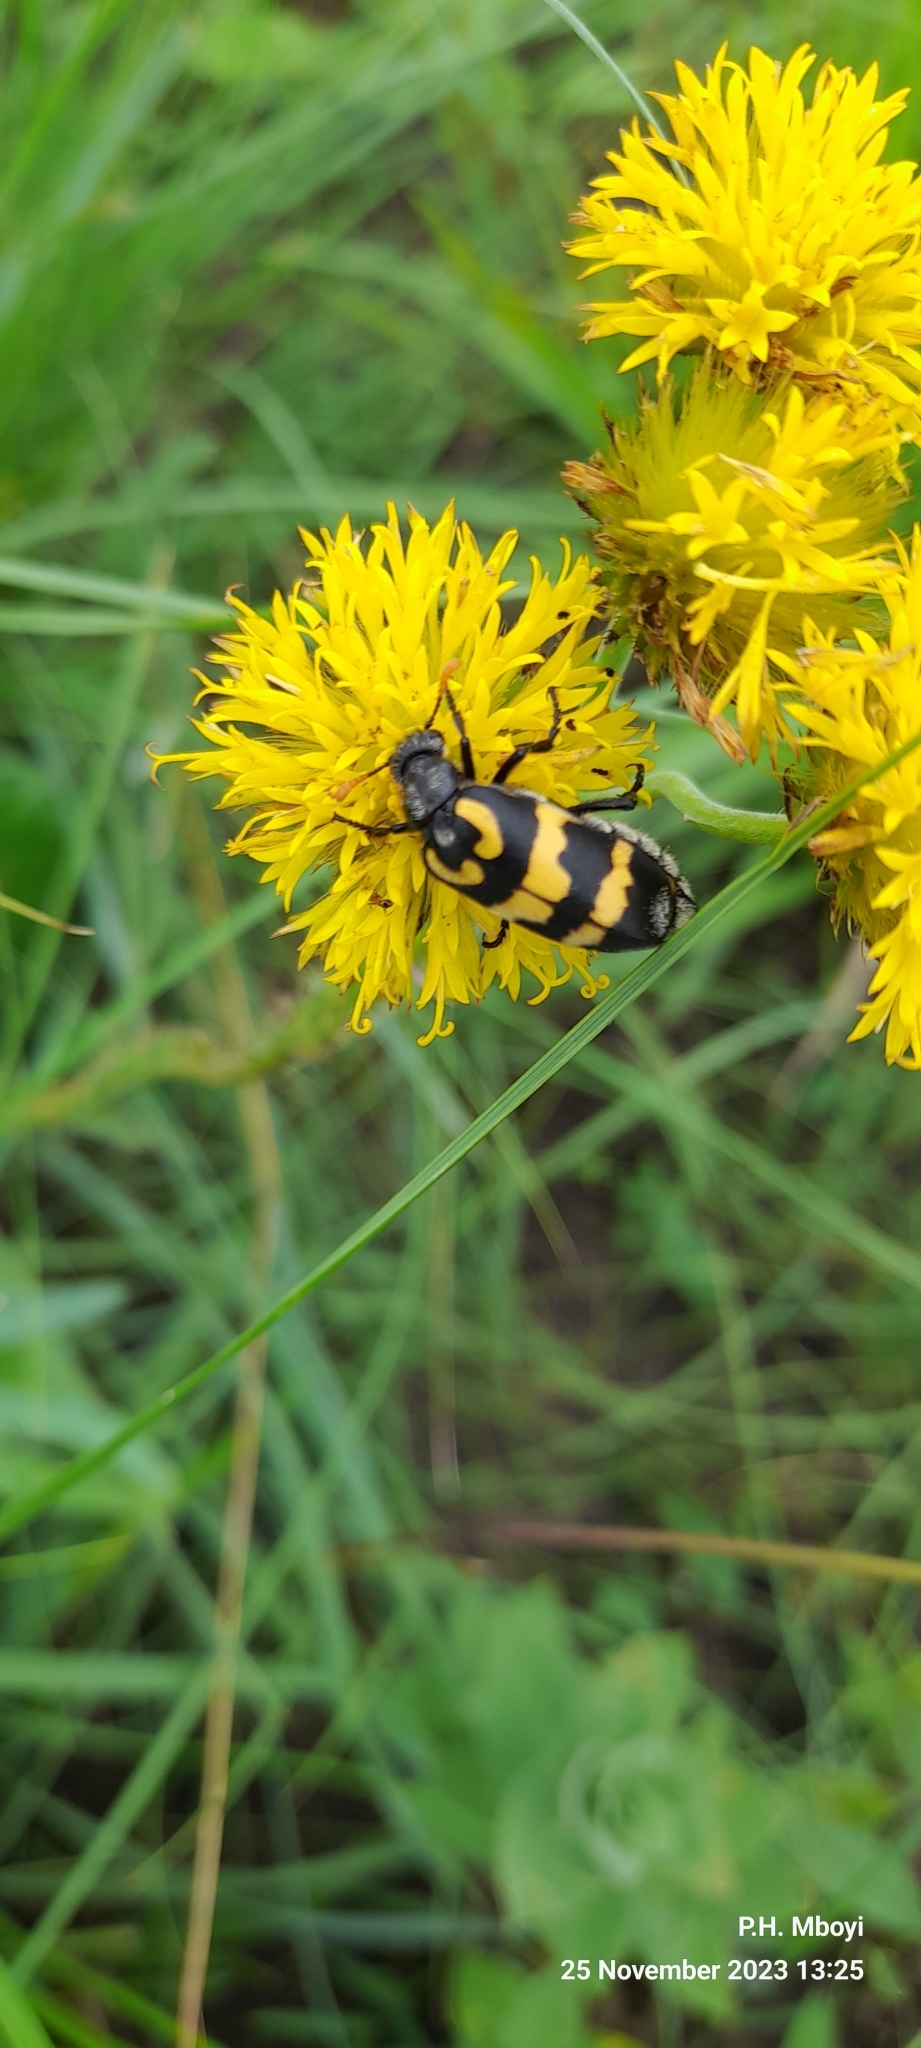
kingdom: Animalia
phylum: Arthropoda
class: Insecta
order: Coleoptera
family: Meloidae
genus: Meloe
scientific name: Meloe lunata
